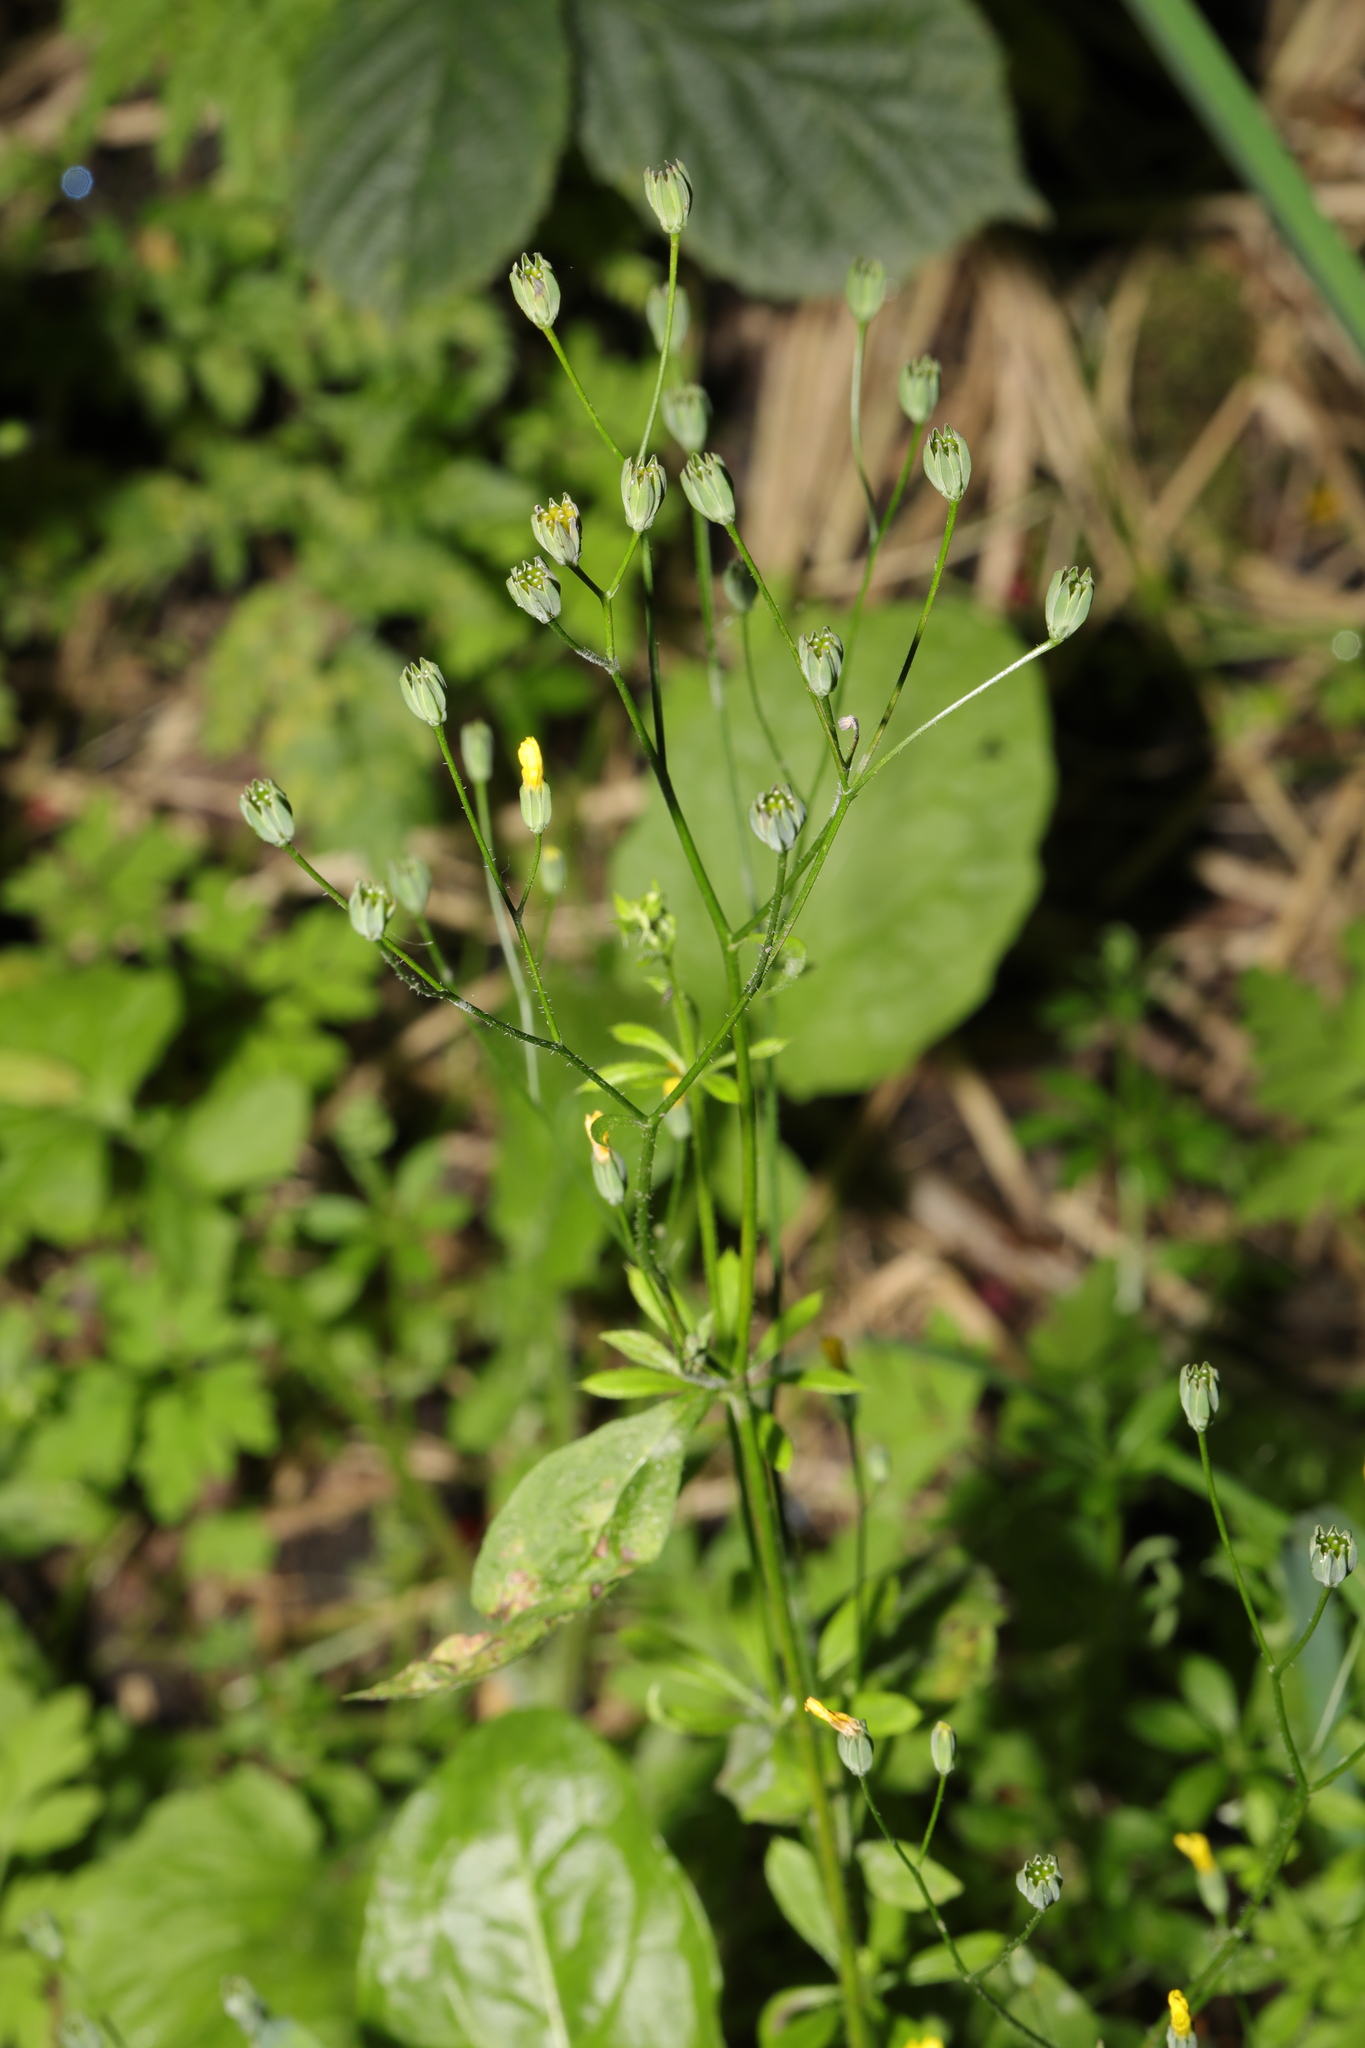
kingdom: Plantae
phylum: Tracheophyta
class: Magnoliopsida
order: Asterales
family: Asteraceae
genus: Lapsana
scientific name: Lapsana communis
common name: Nipplewort
